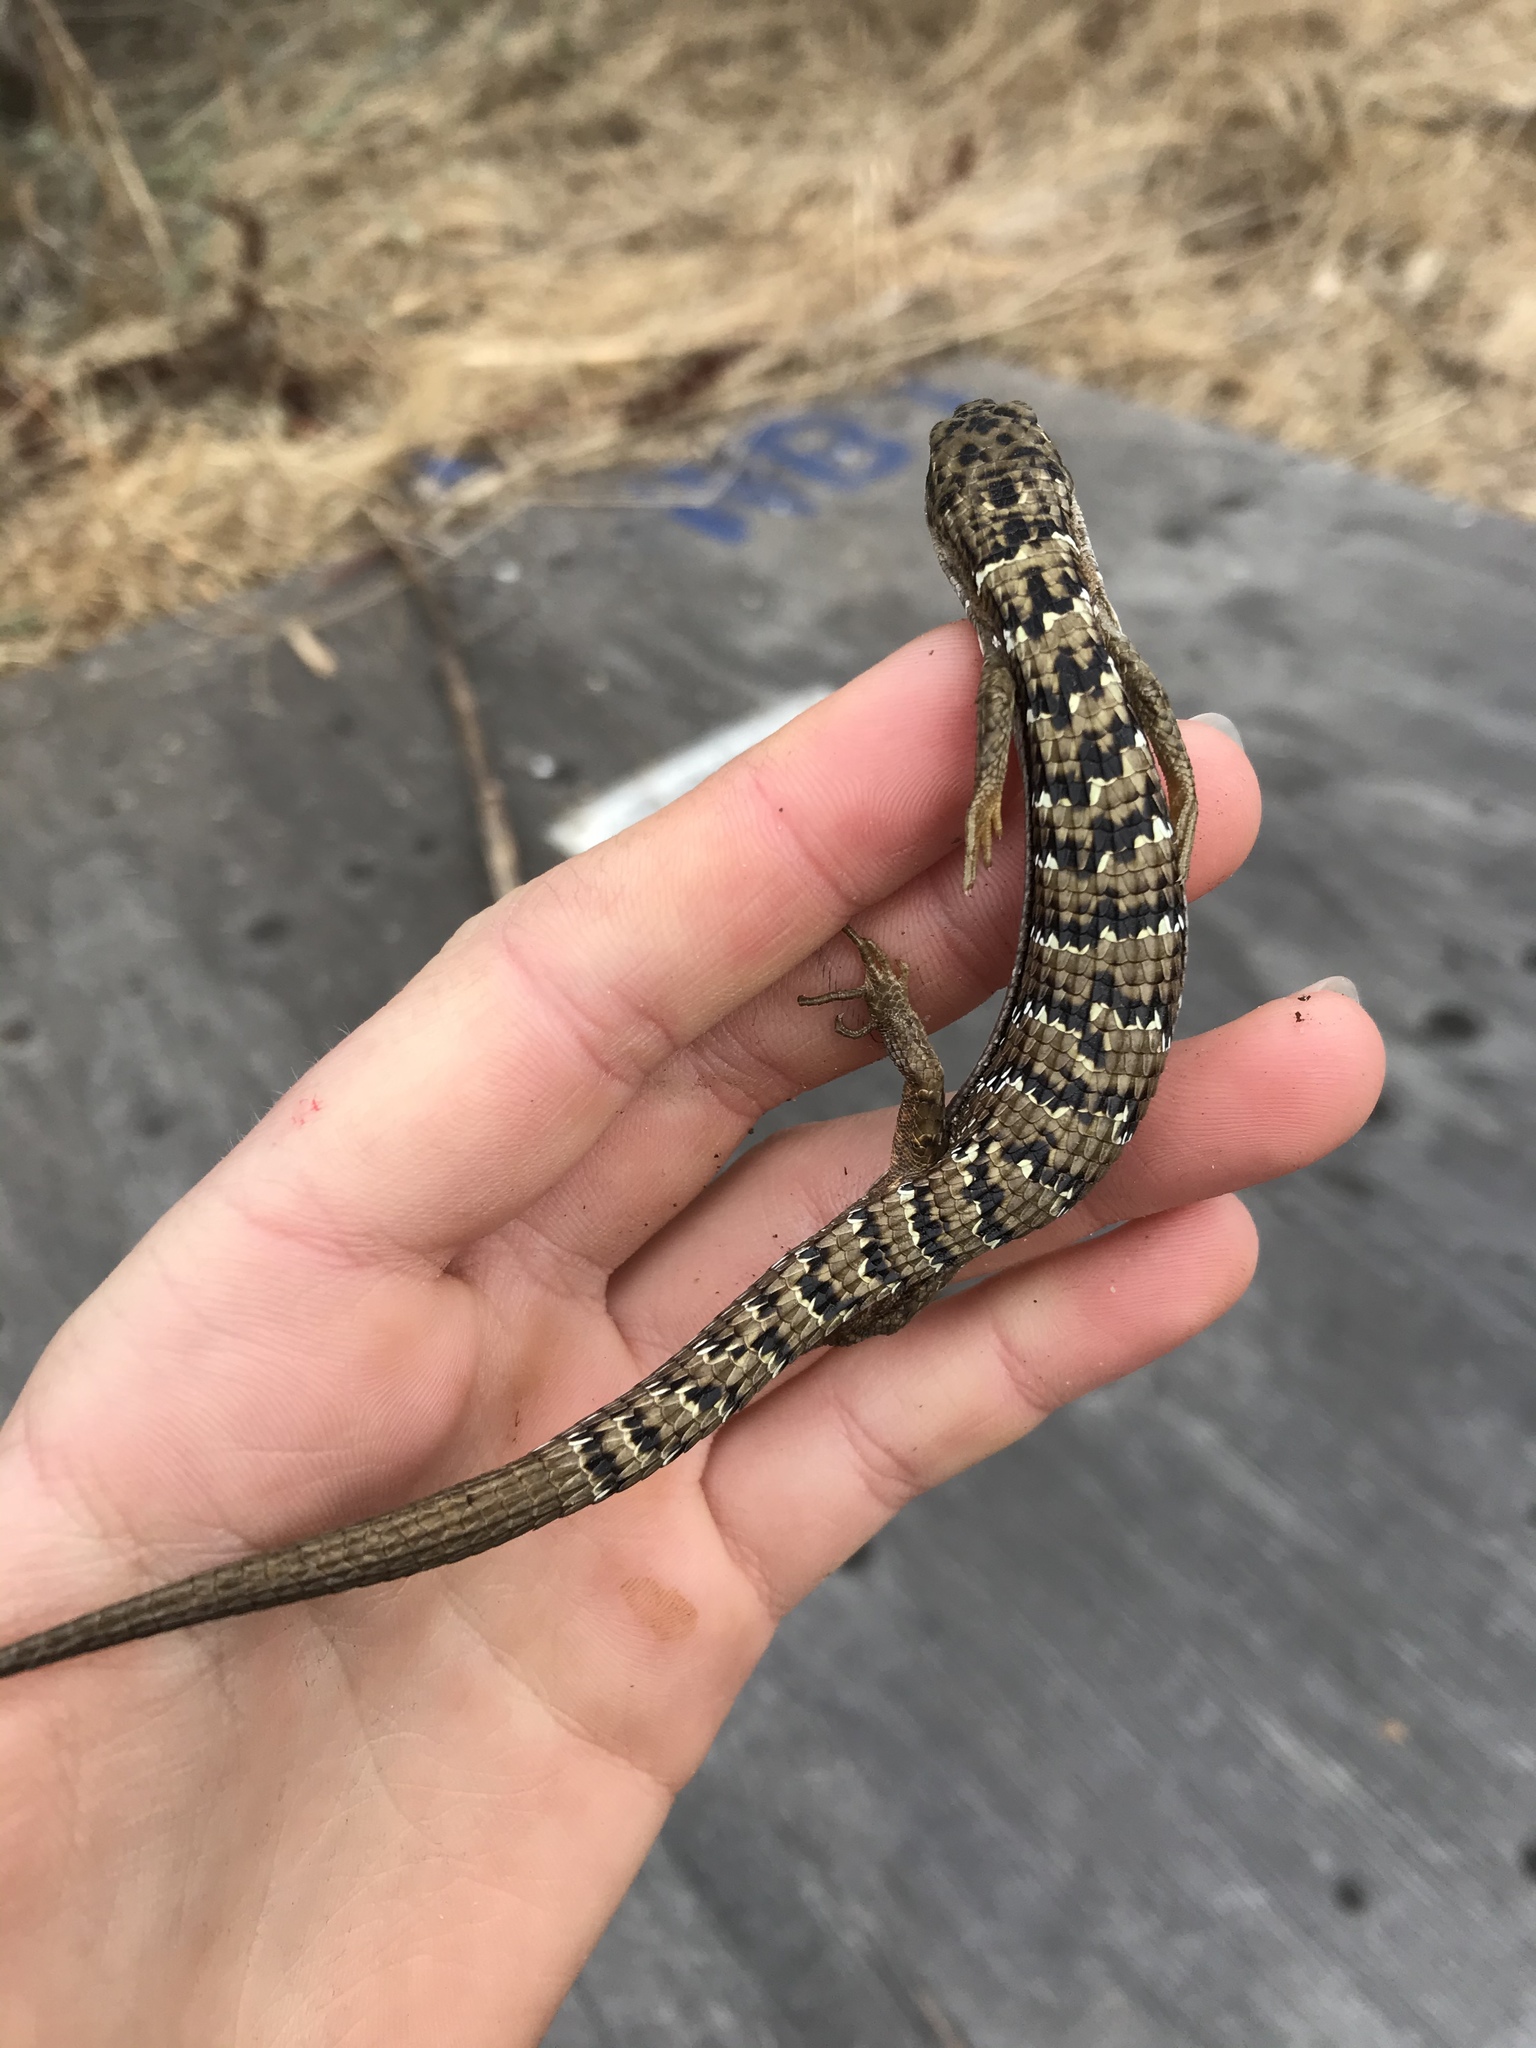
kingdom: Animalia
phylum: Chordata
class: Squamata
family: Anguidae
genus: Elgaria
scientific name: Elgaria multicarinata
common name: Southern alligator lizard
